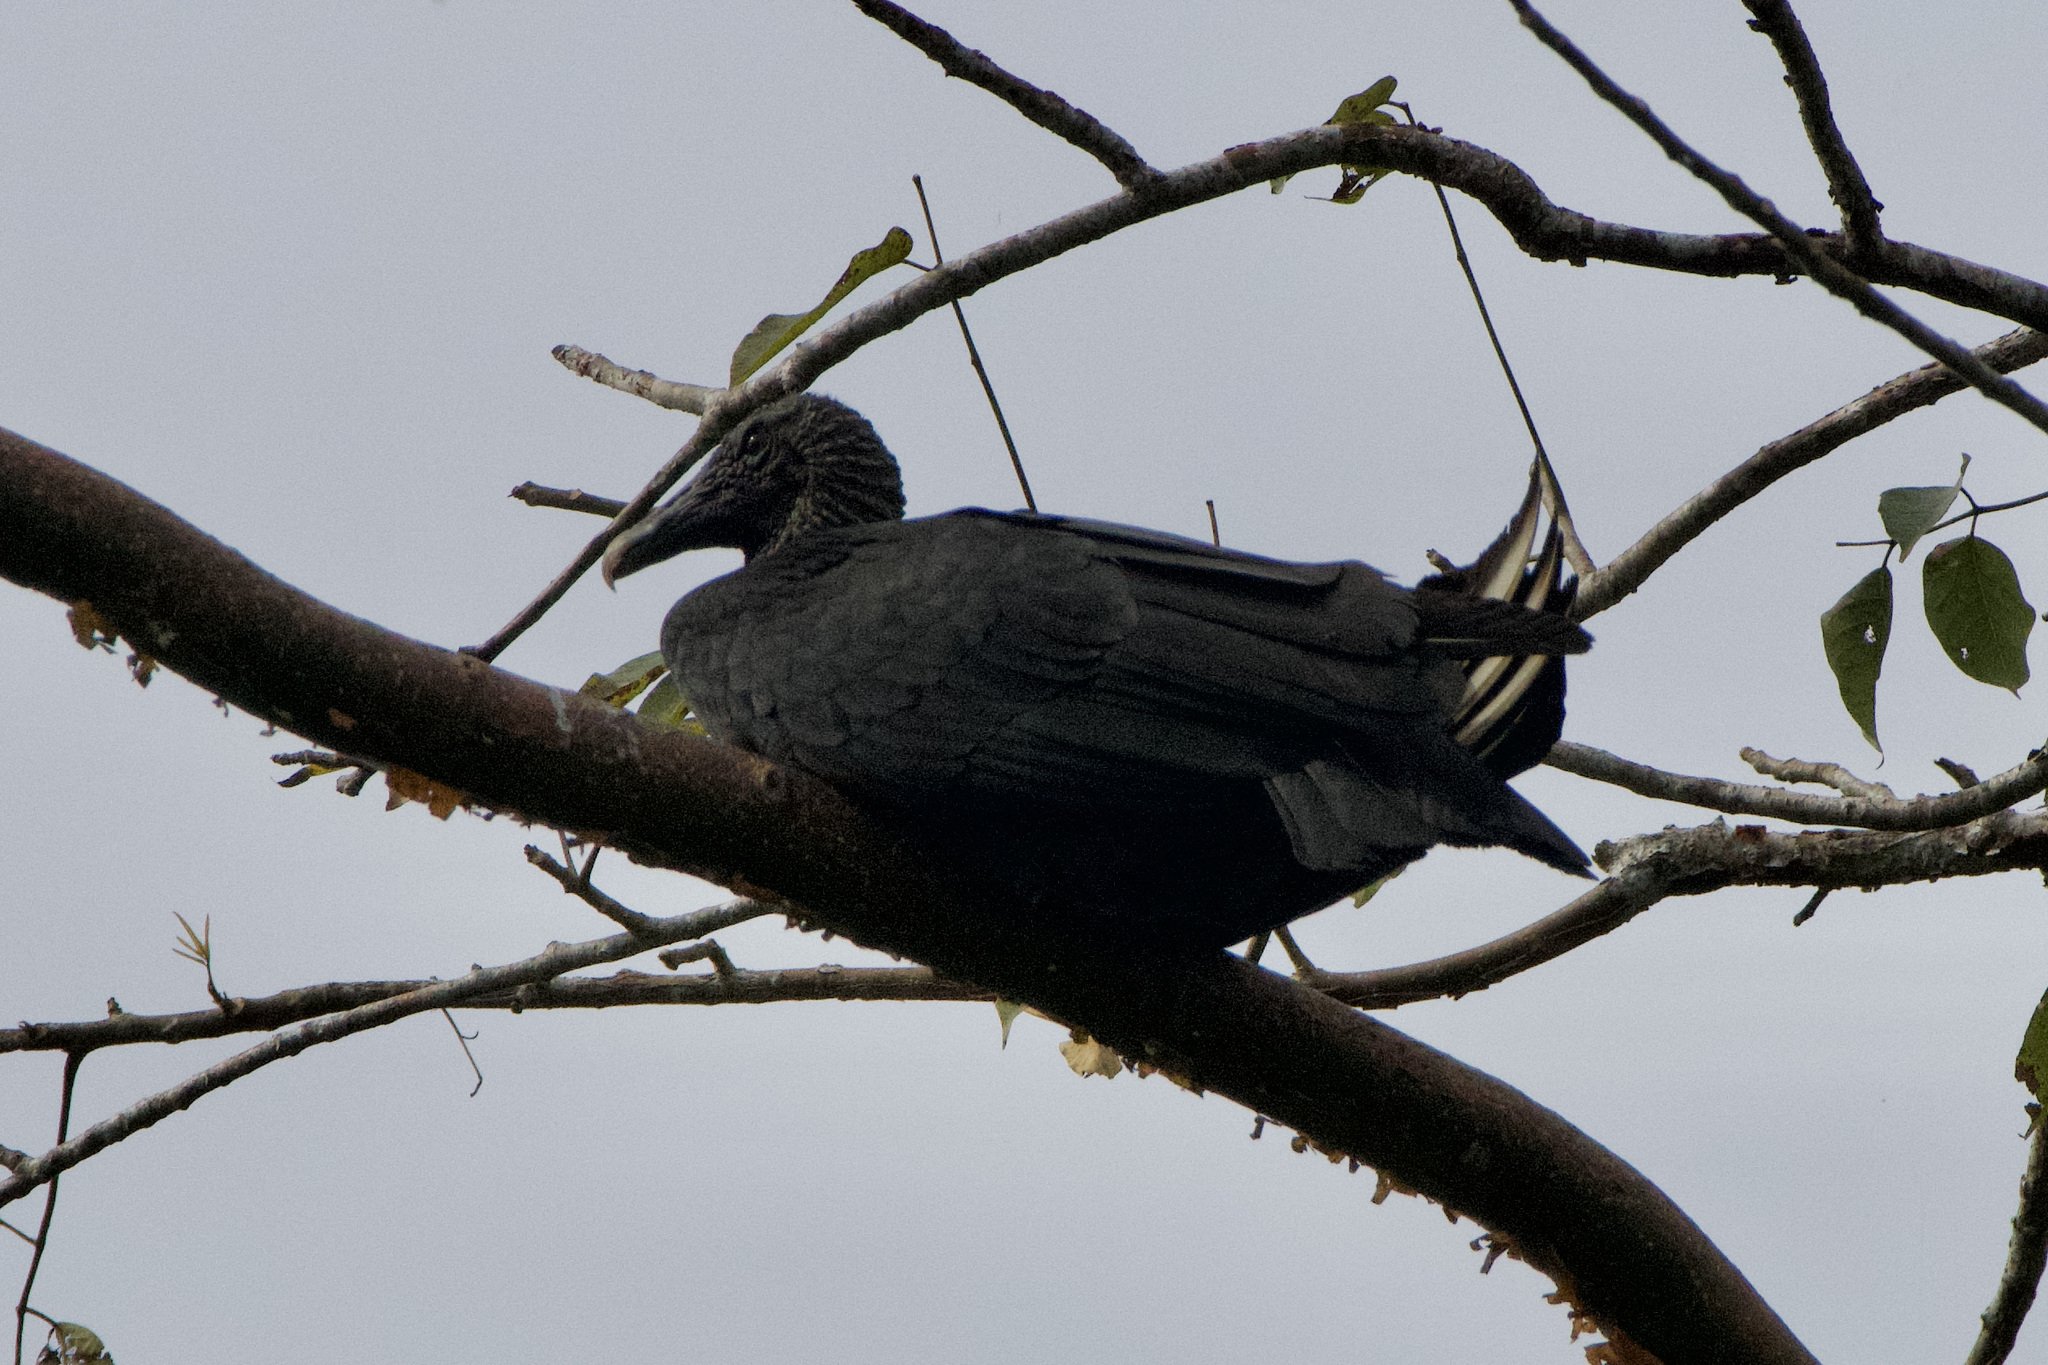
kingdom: Animalia
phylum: Chordata
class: Aves
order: Accipitriformes
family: Cathartidae
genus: Coragyps
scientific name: Coragyps atratus
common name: Black vulture
